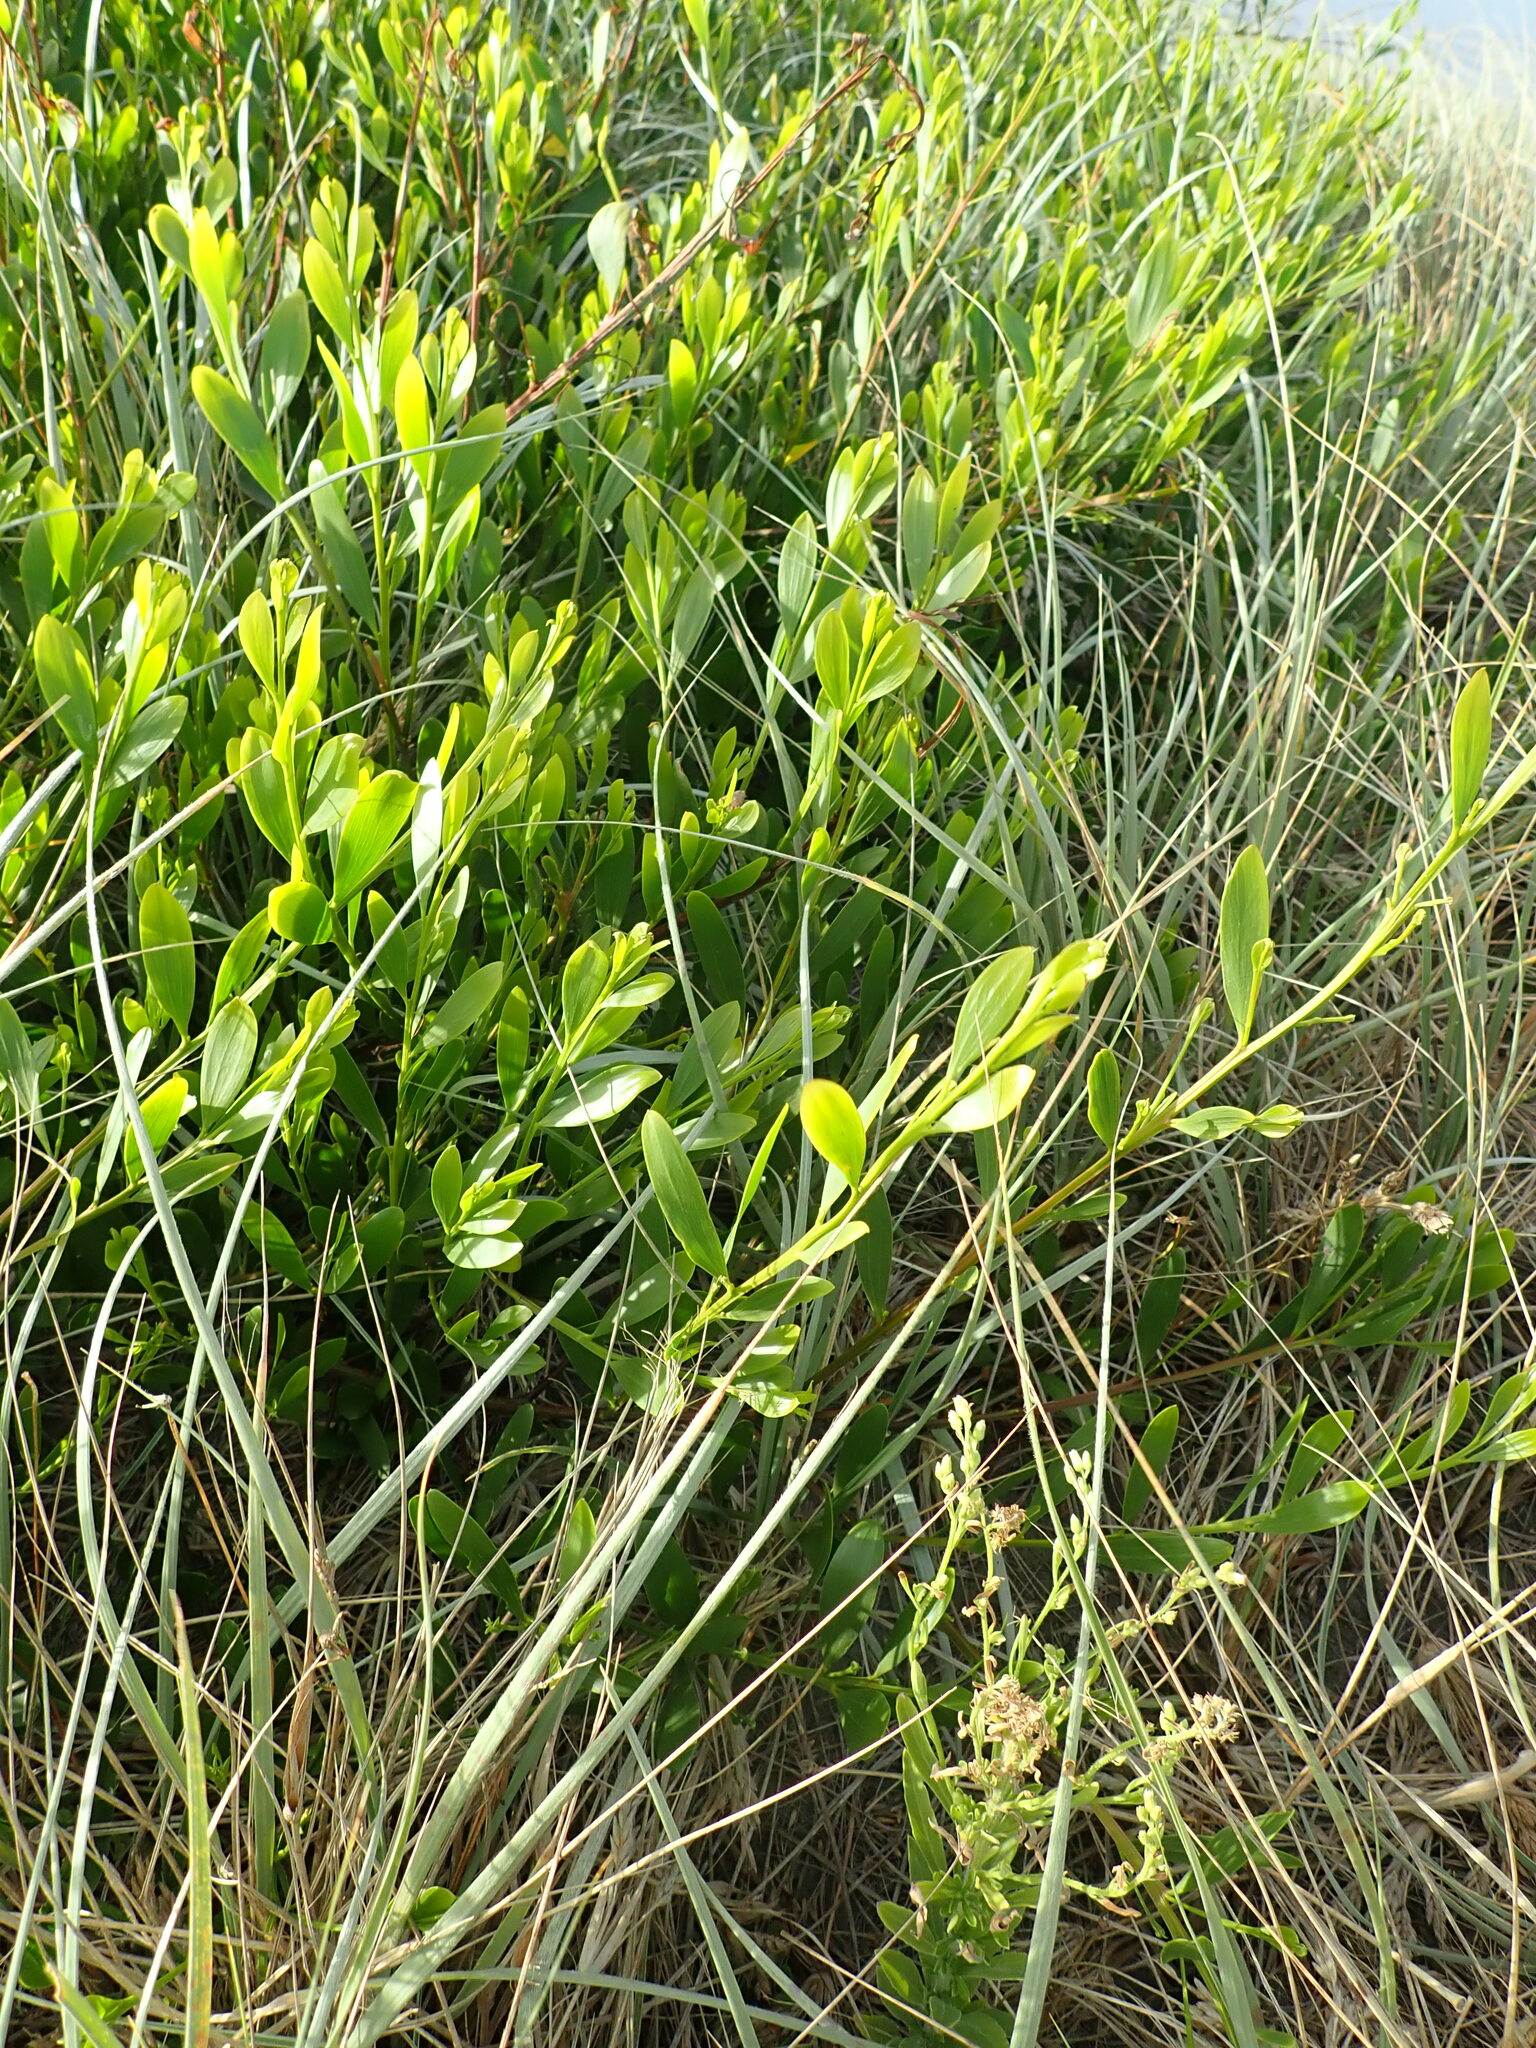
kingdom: Plantae
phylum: Tracheophyta
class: Magnoliopsida
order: Fabales
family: Fabaceae
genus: Acacia
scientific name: Acacia longifolia
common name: Sydney golden wattle
